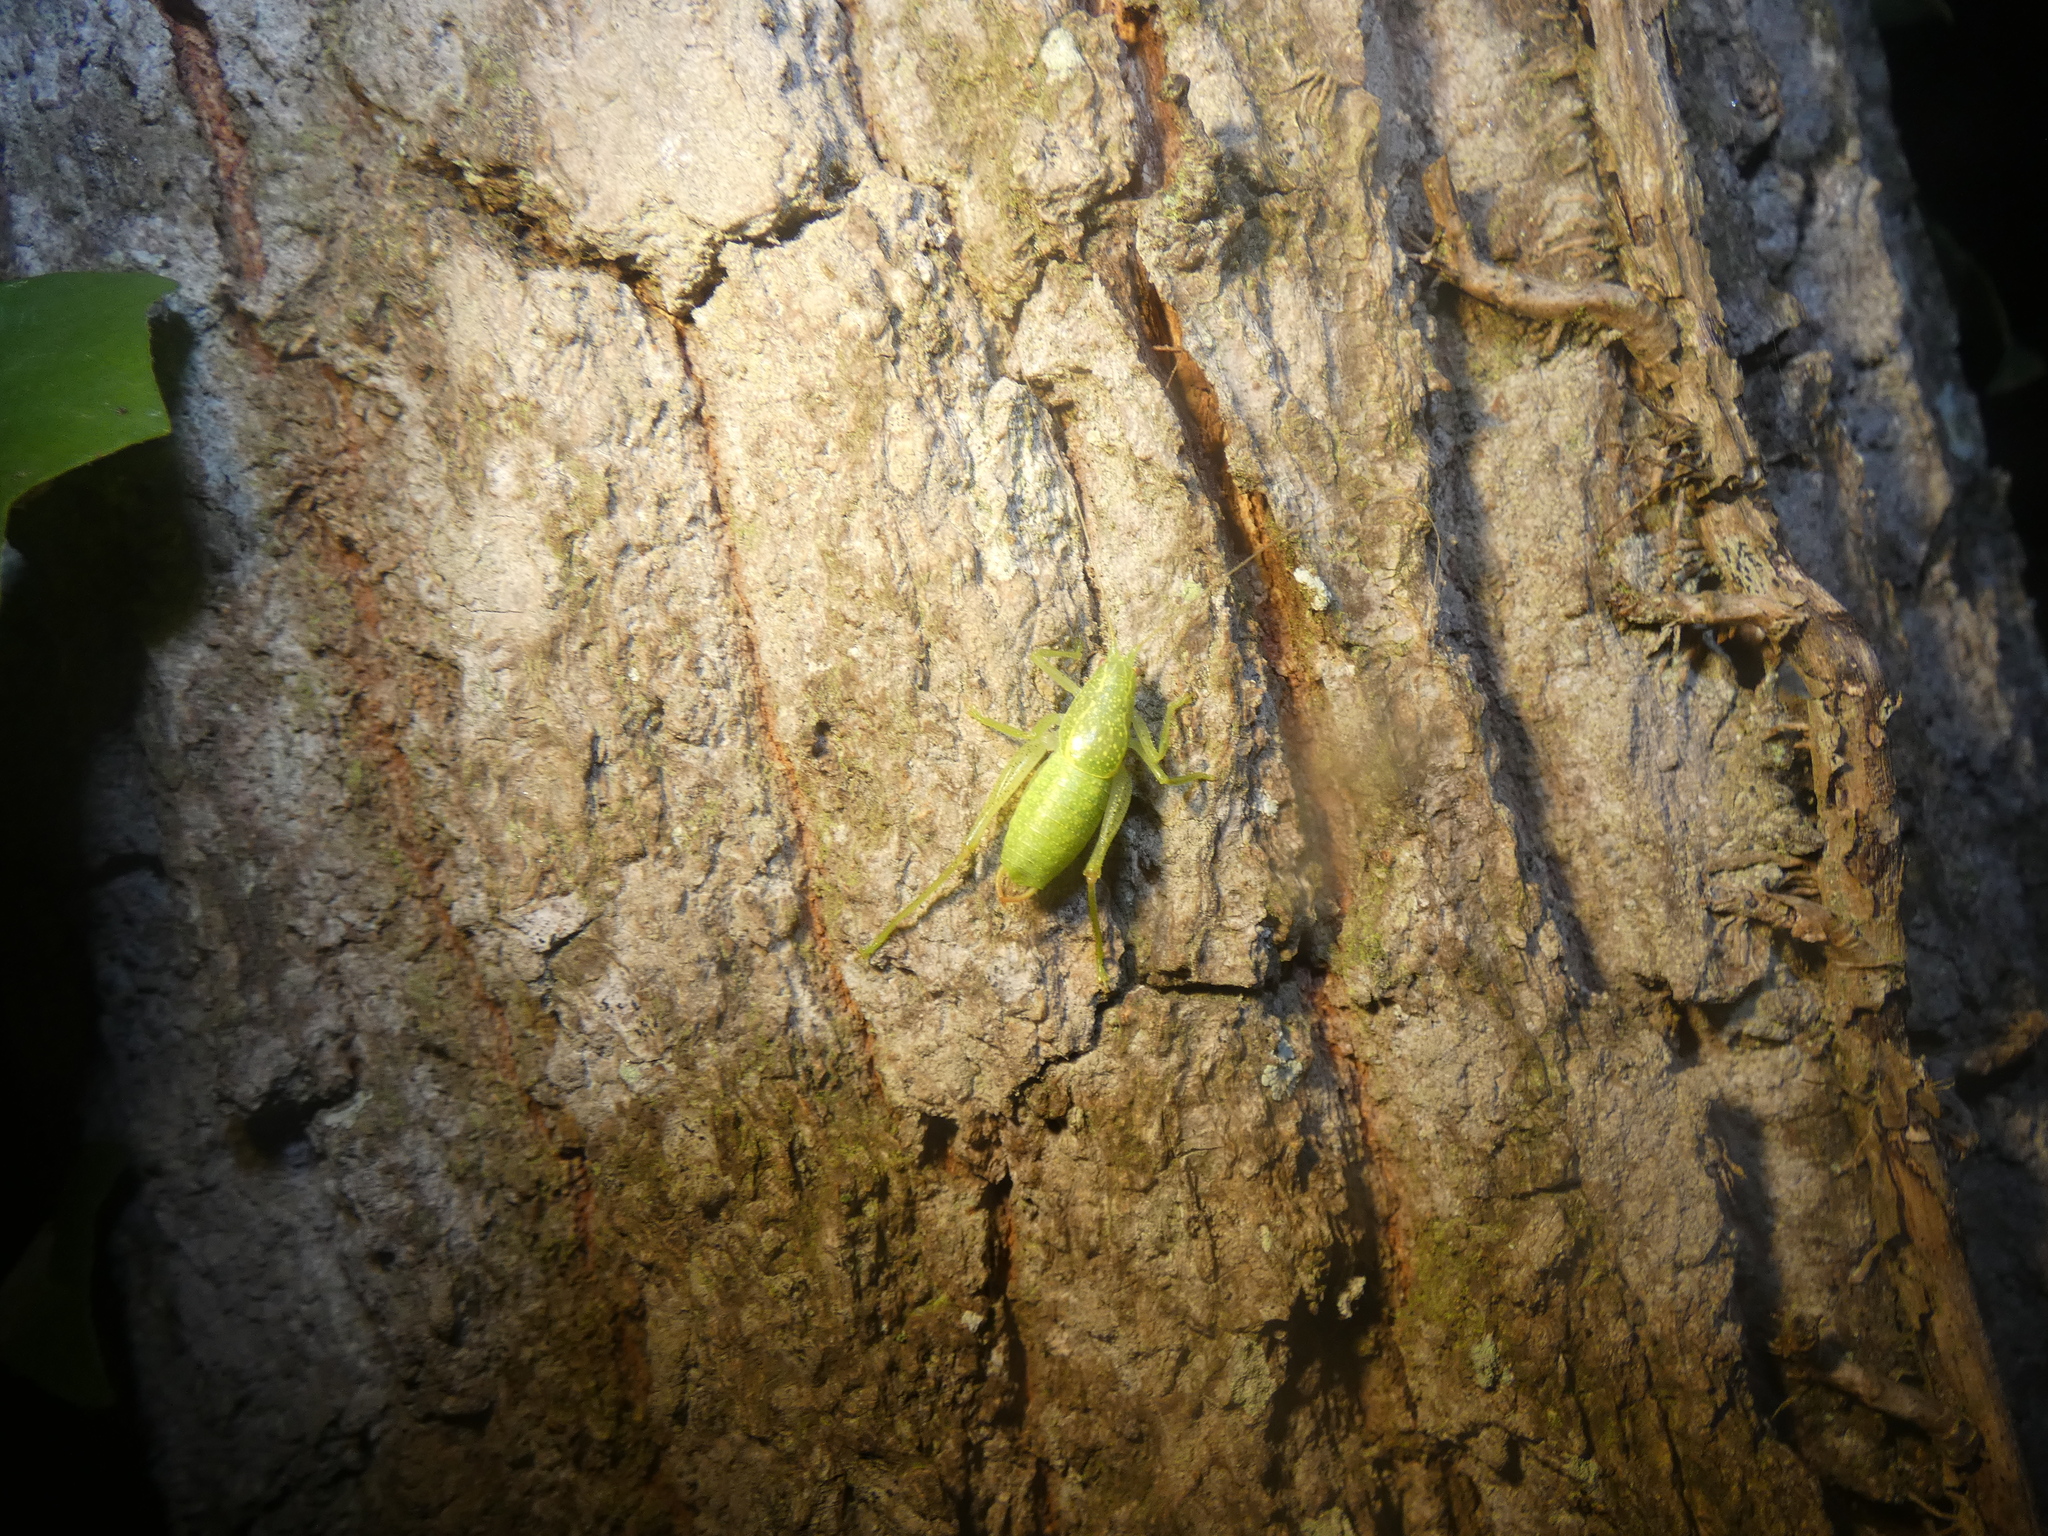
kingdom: Animalia
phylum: Arthropoda
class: Insecta
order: Orthoptera
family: Tettigoniidae
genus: Cyrtaspis
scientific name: Cyrtaspis scutata
